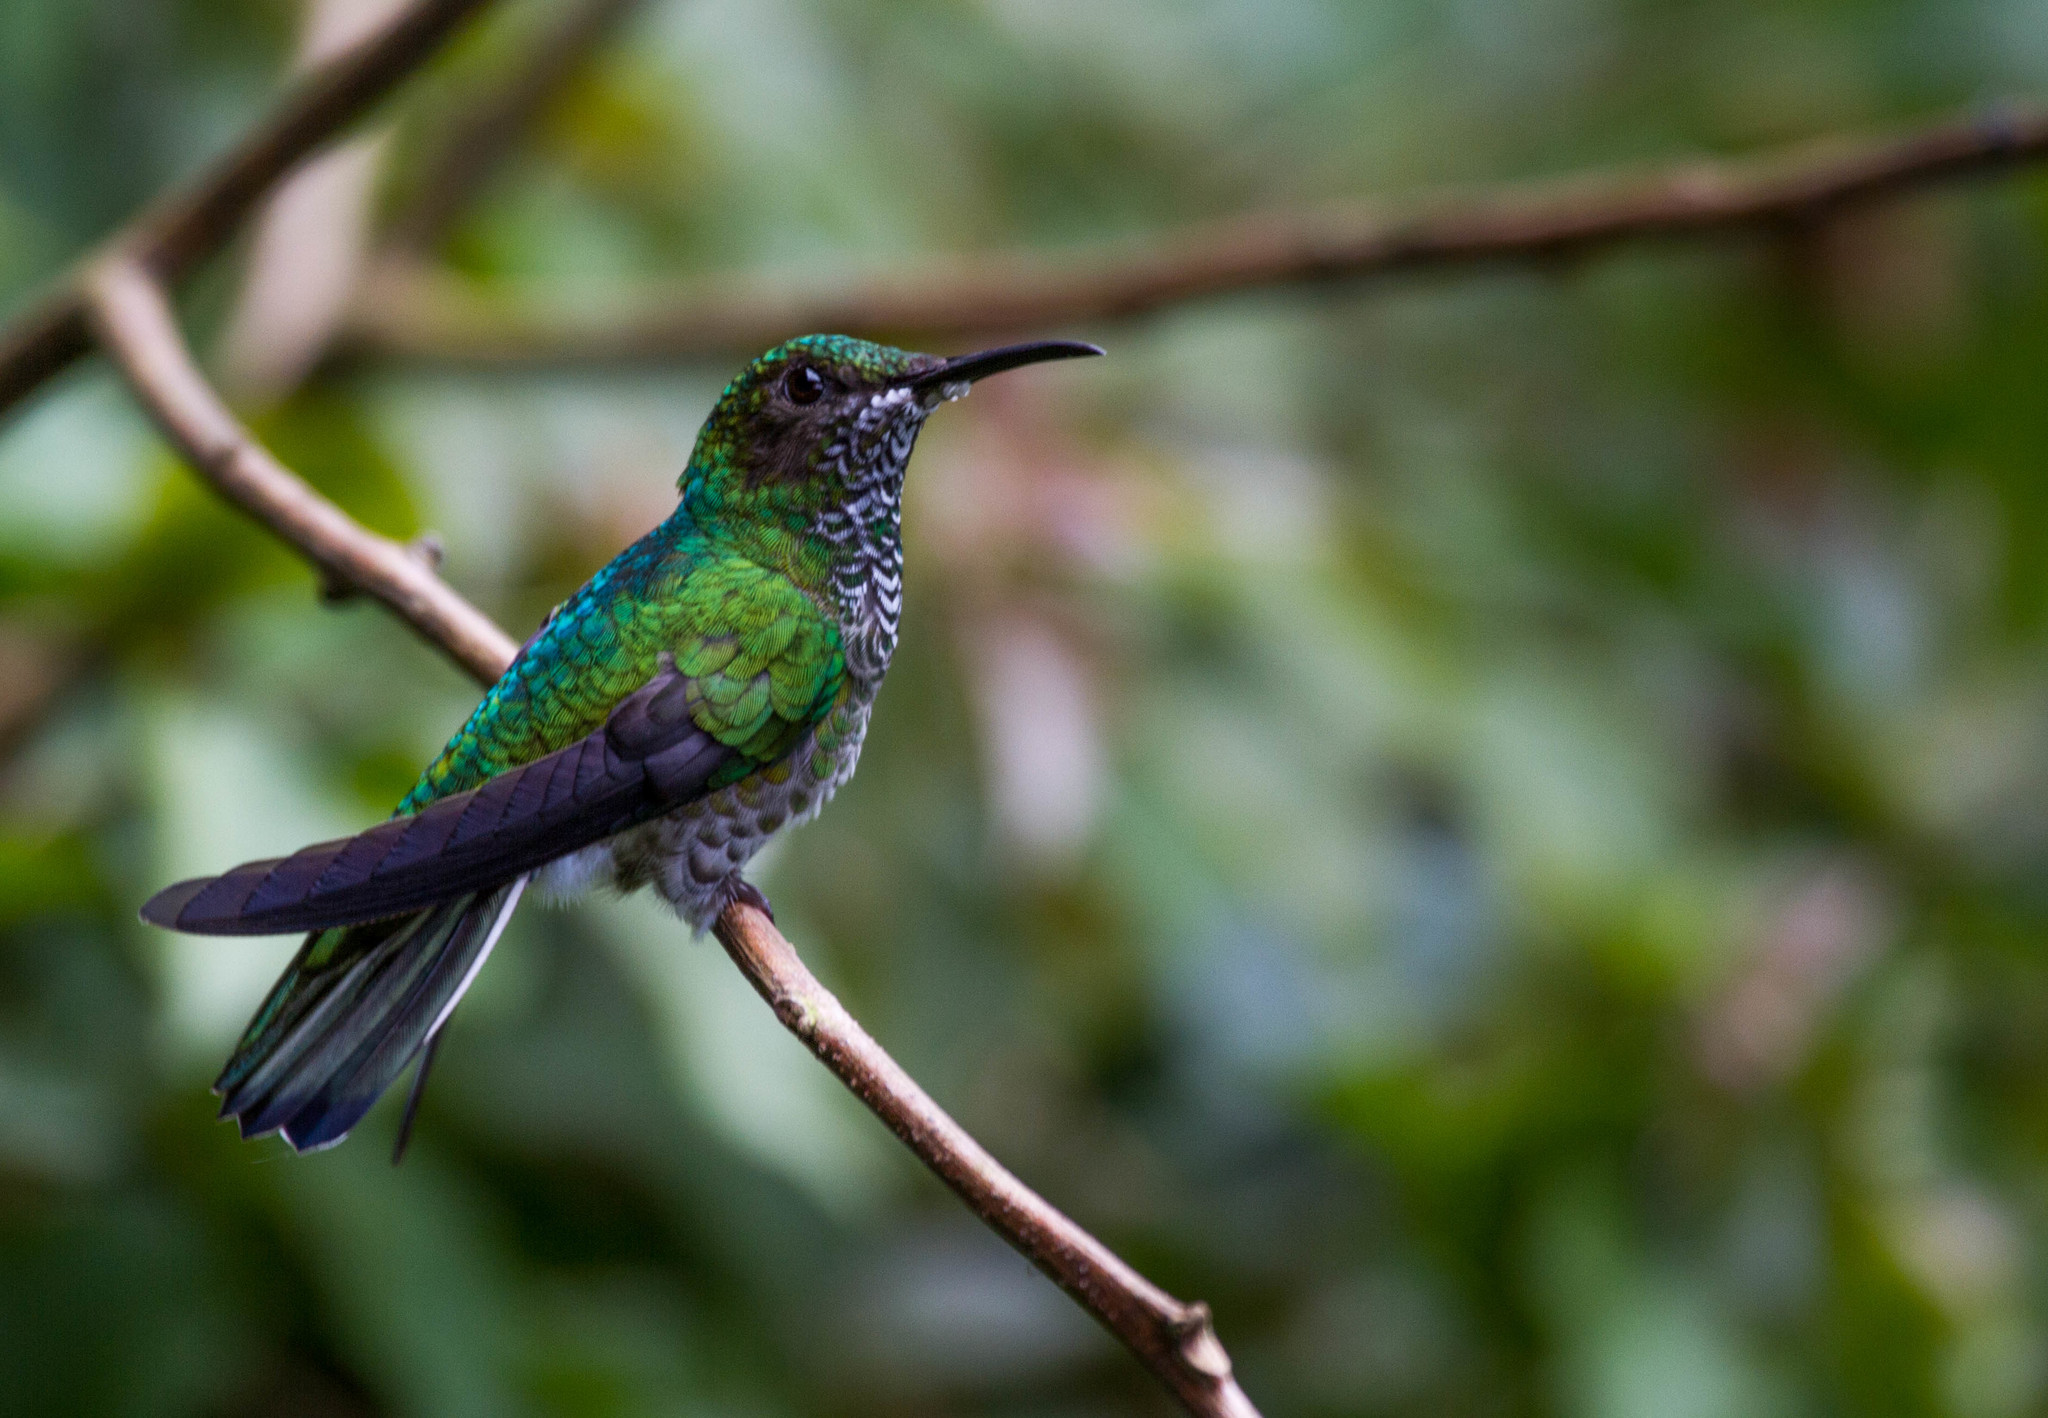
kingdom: Animalia
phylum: Chordata
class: Aves
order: Apodiformes
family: Trochilidae
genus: Florisuga
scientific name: Florisuga mellivora
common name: White-necked jacobin
